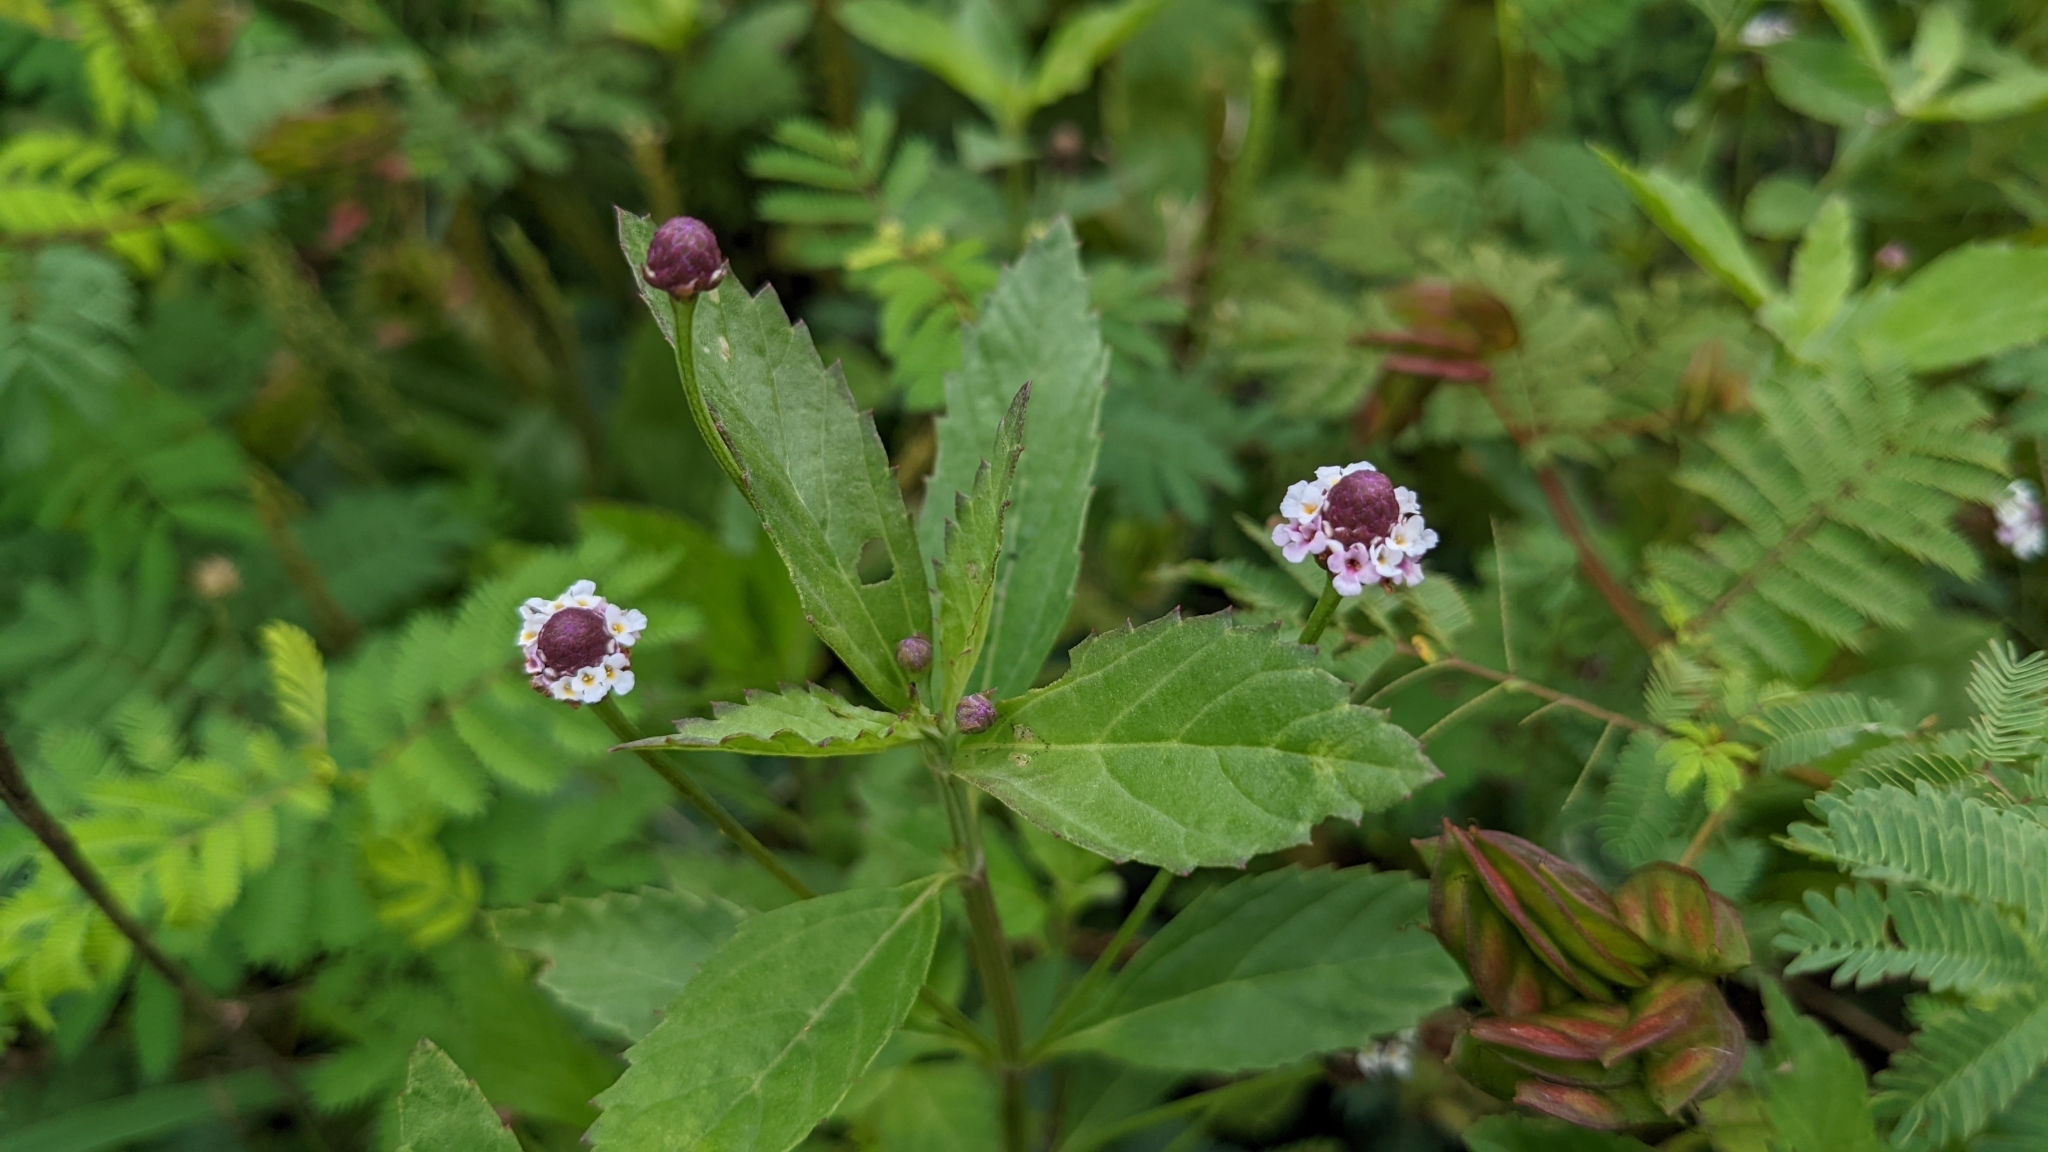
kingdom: Plantae
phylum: Tracheophyta
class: Magnoliopsida
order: Lamiales
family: Verbenaceae
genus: Phyla
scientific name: Phyla lanceolata
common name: Northern fogfruit
